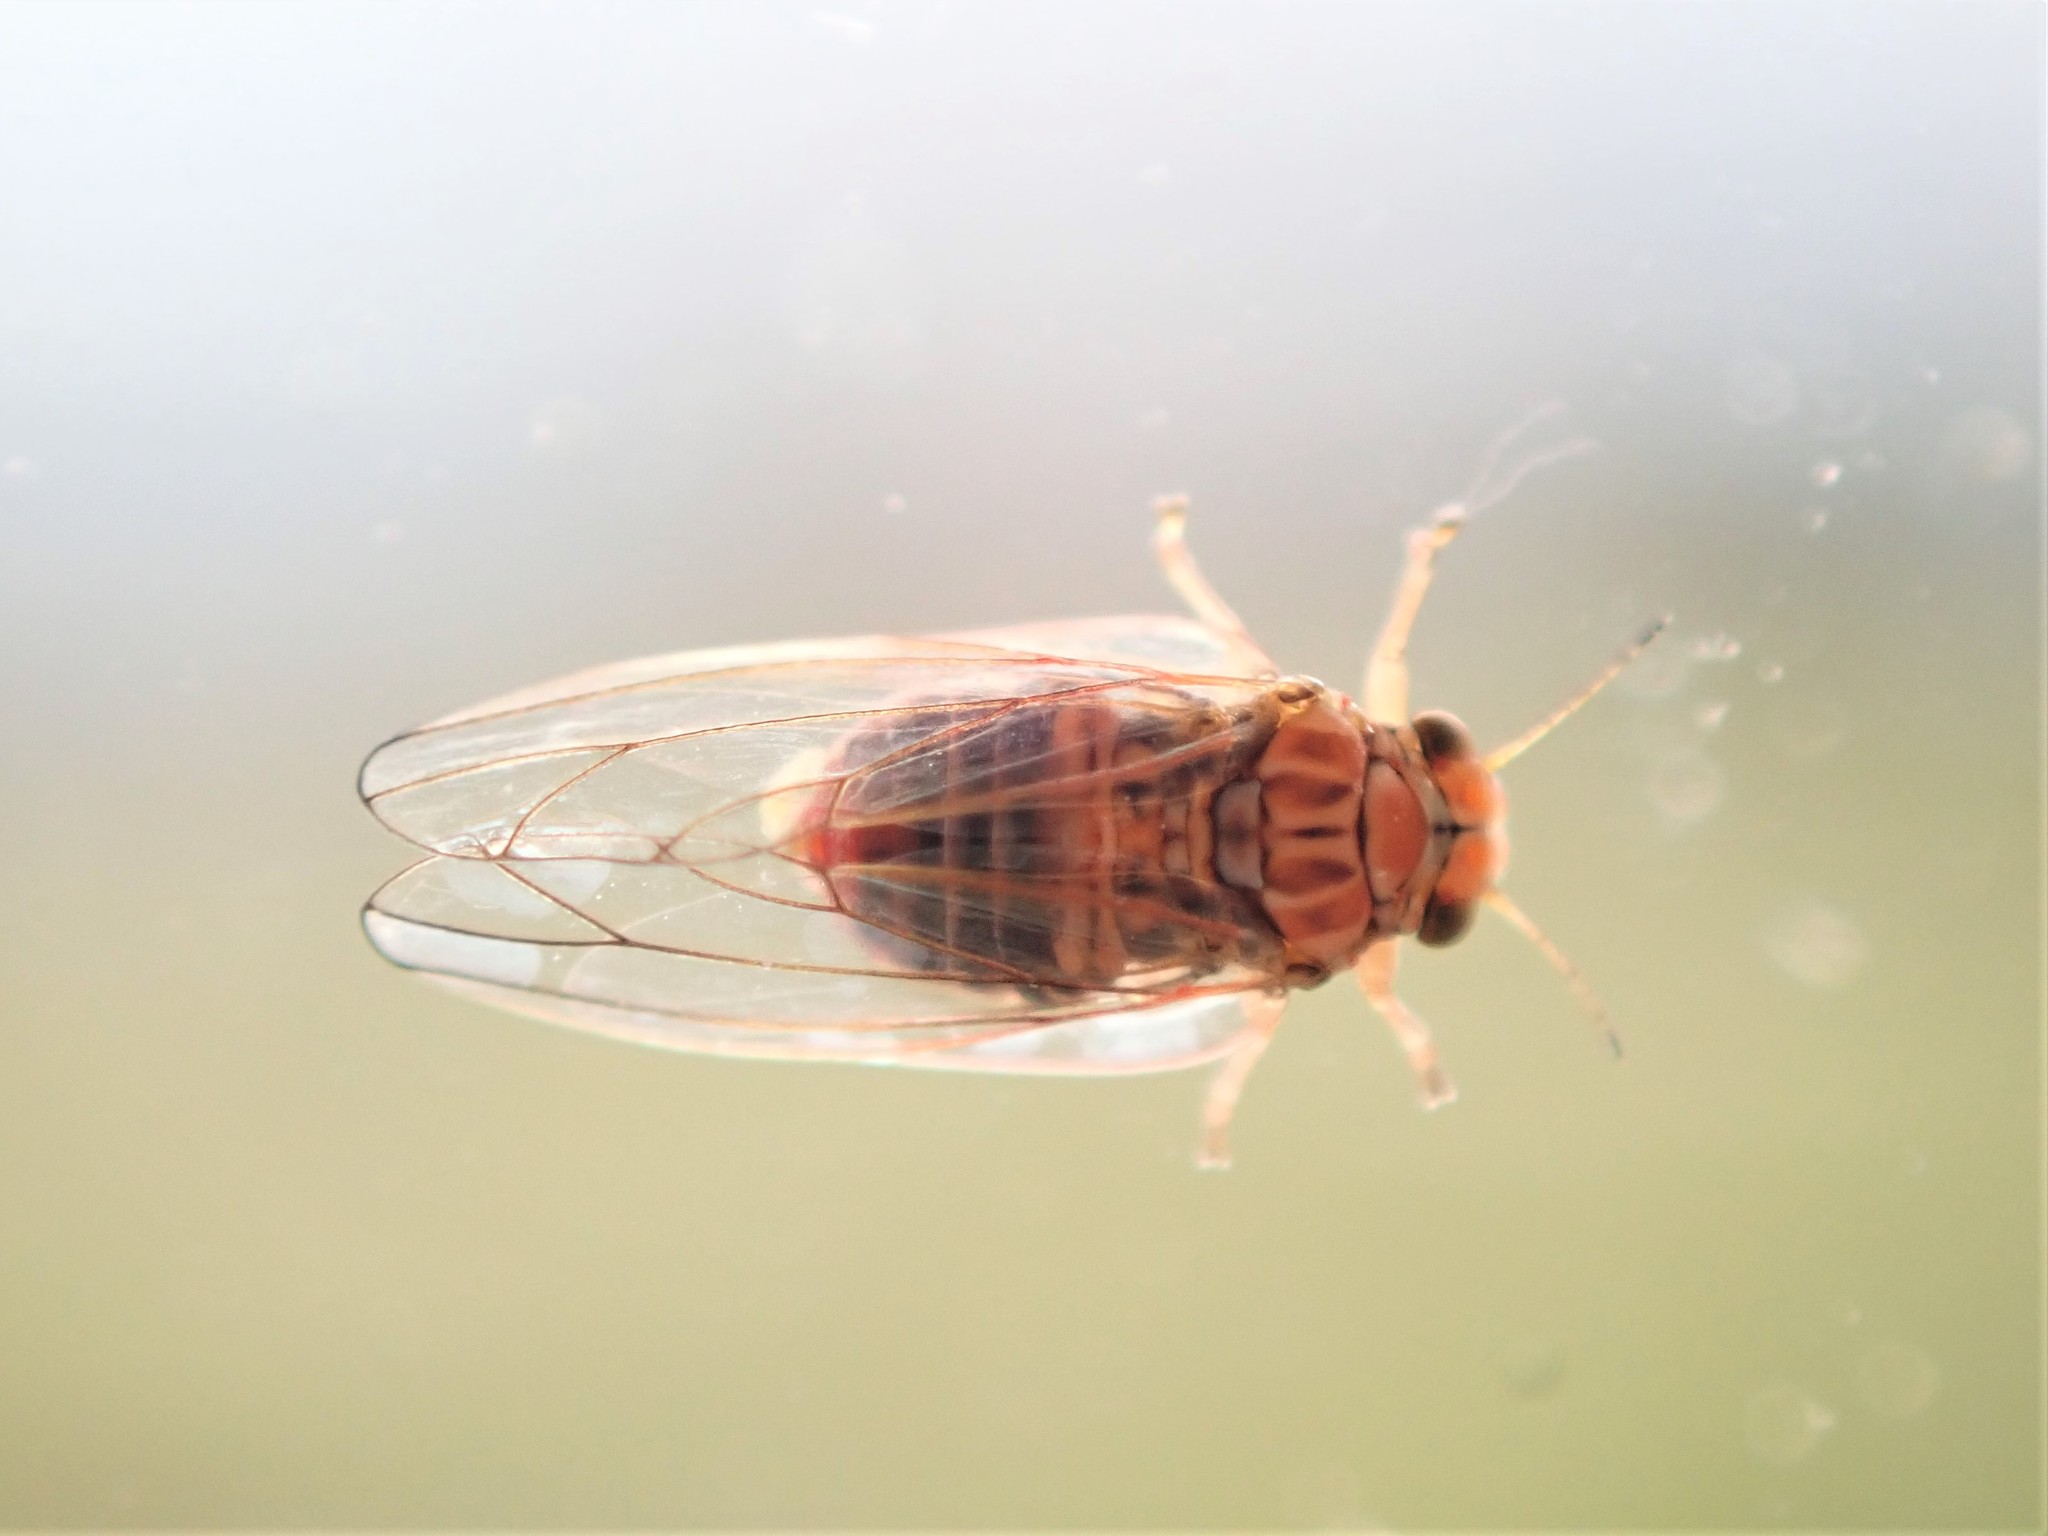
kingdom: Animalia
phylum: Arthropoda
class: Insecta
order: Hemiptera
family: Aphalaridae
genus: Cardiaspina
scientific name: Cardiaspina fiscella
